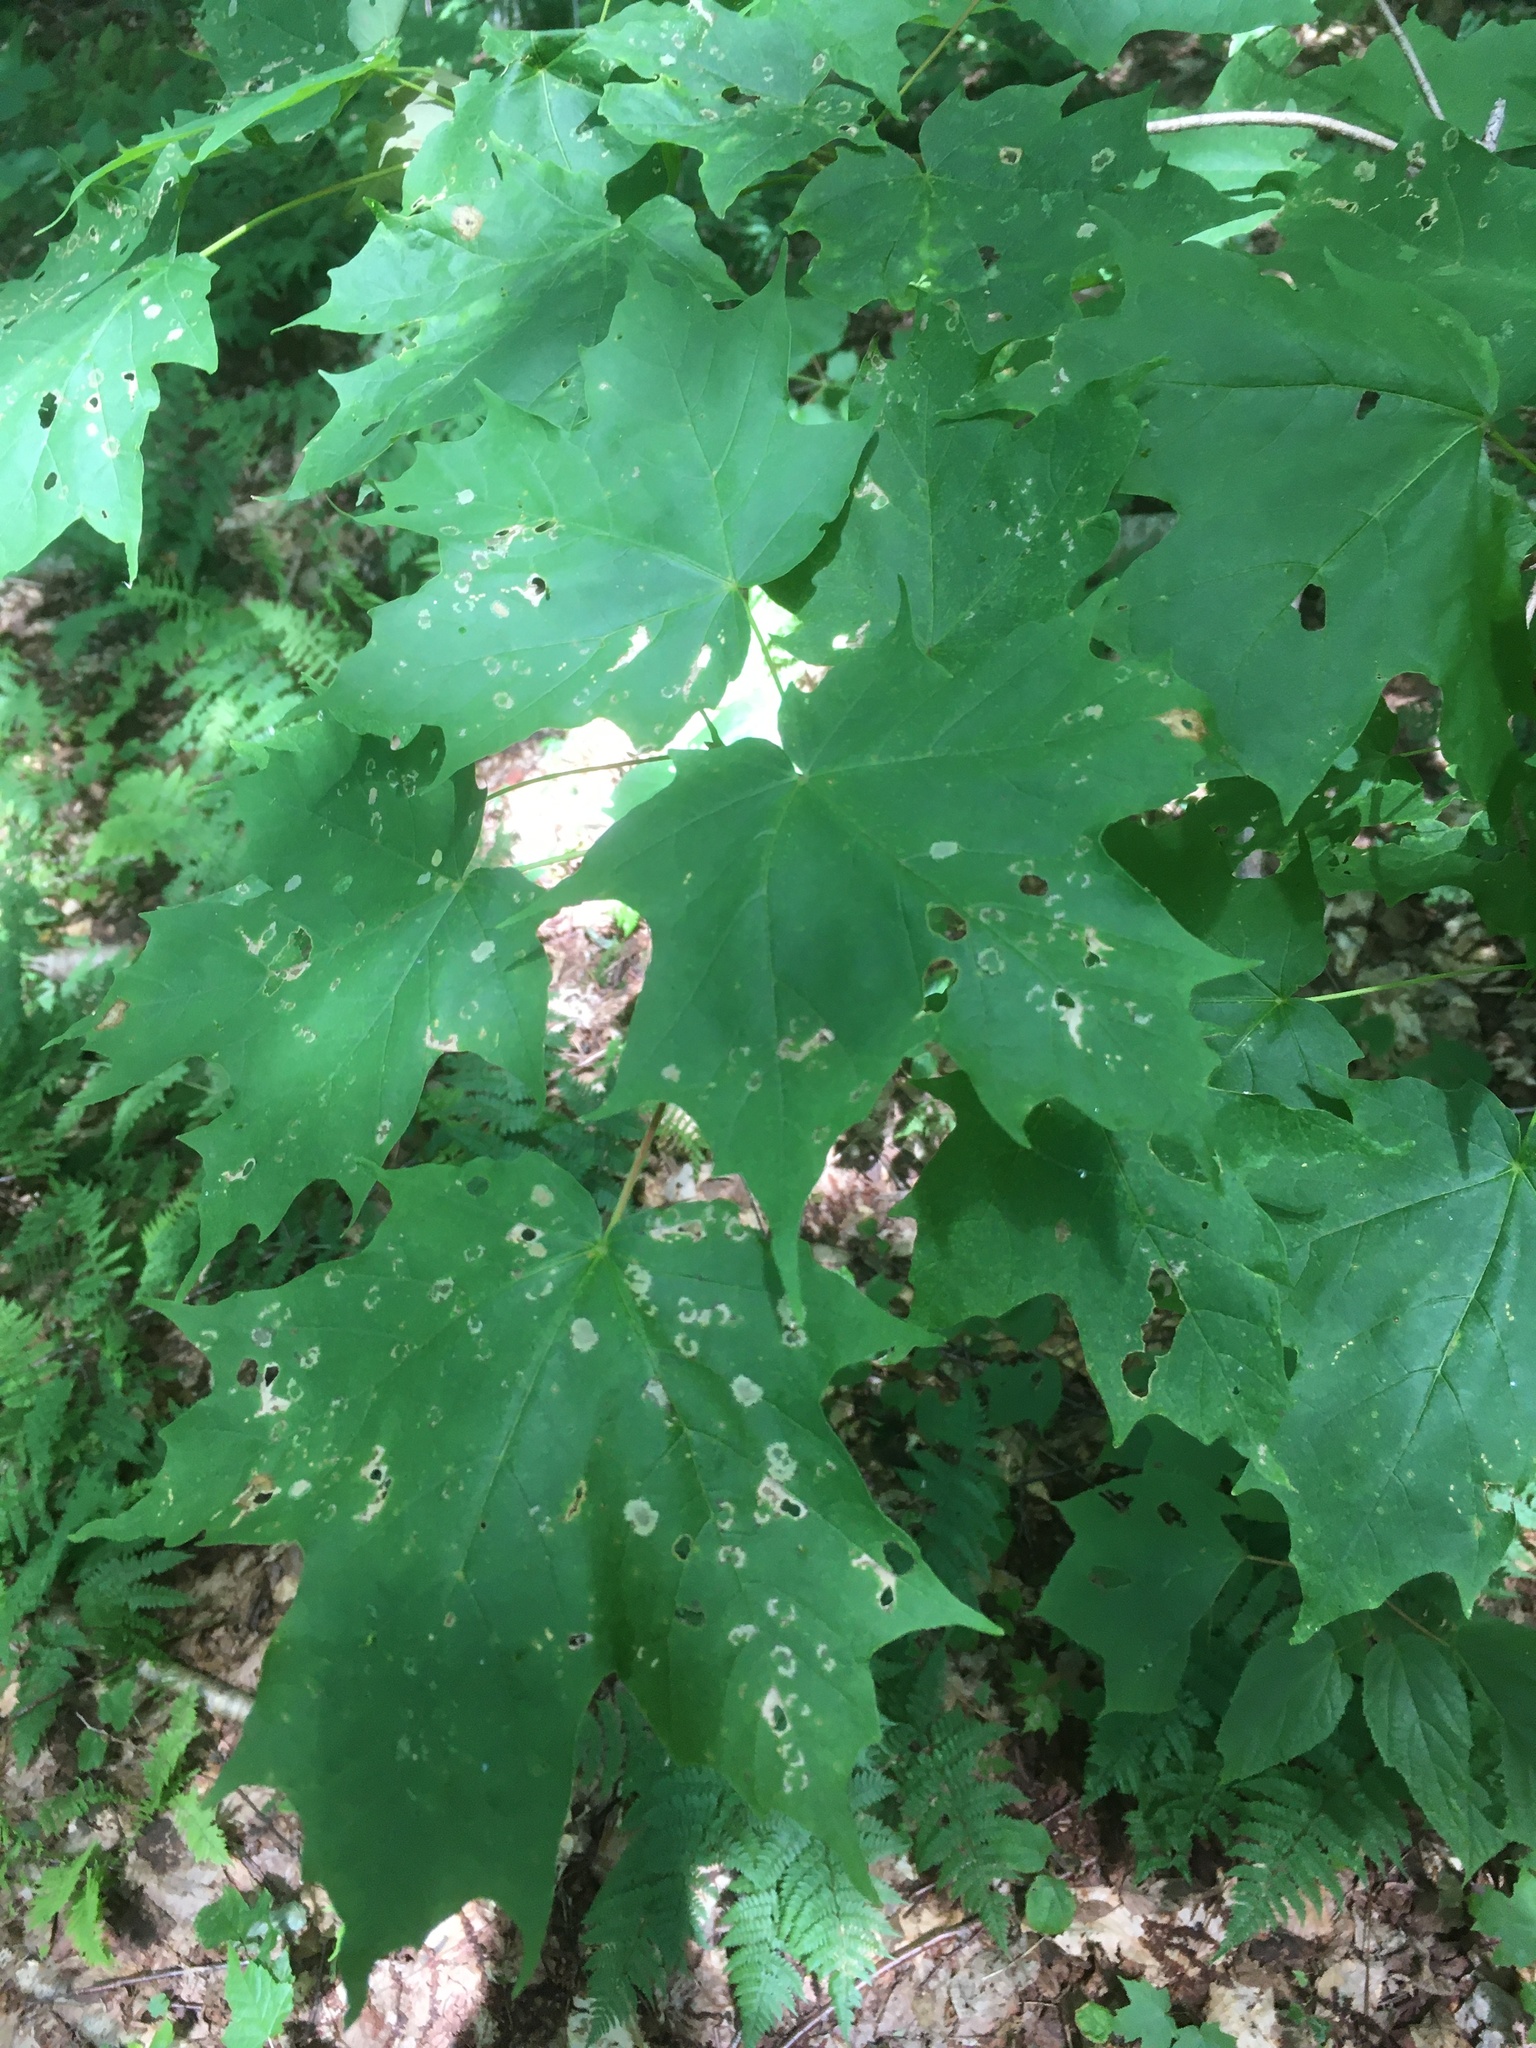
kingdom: Animalia
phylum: Arthropoda
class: Insecta
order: Lepidoptera
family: Incurvariidae
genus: Paraclemensia
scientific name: Paraclemensia acerifoliella
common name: Maple leafcutter
